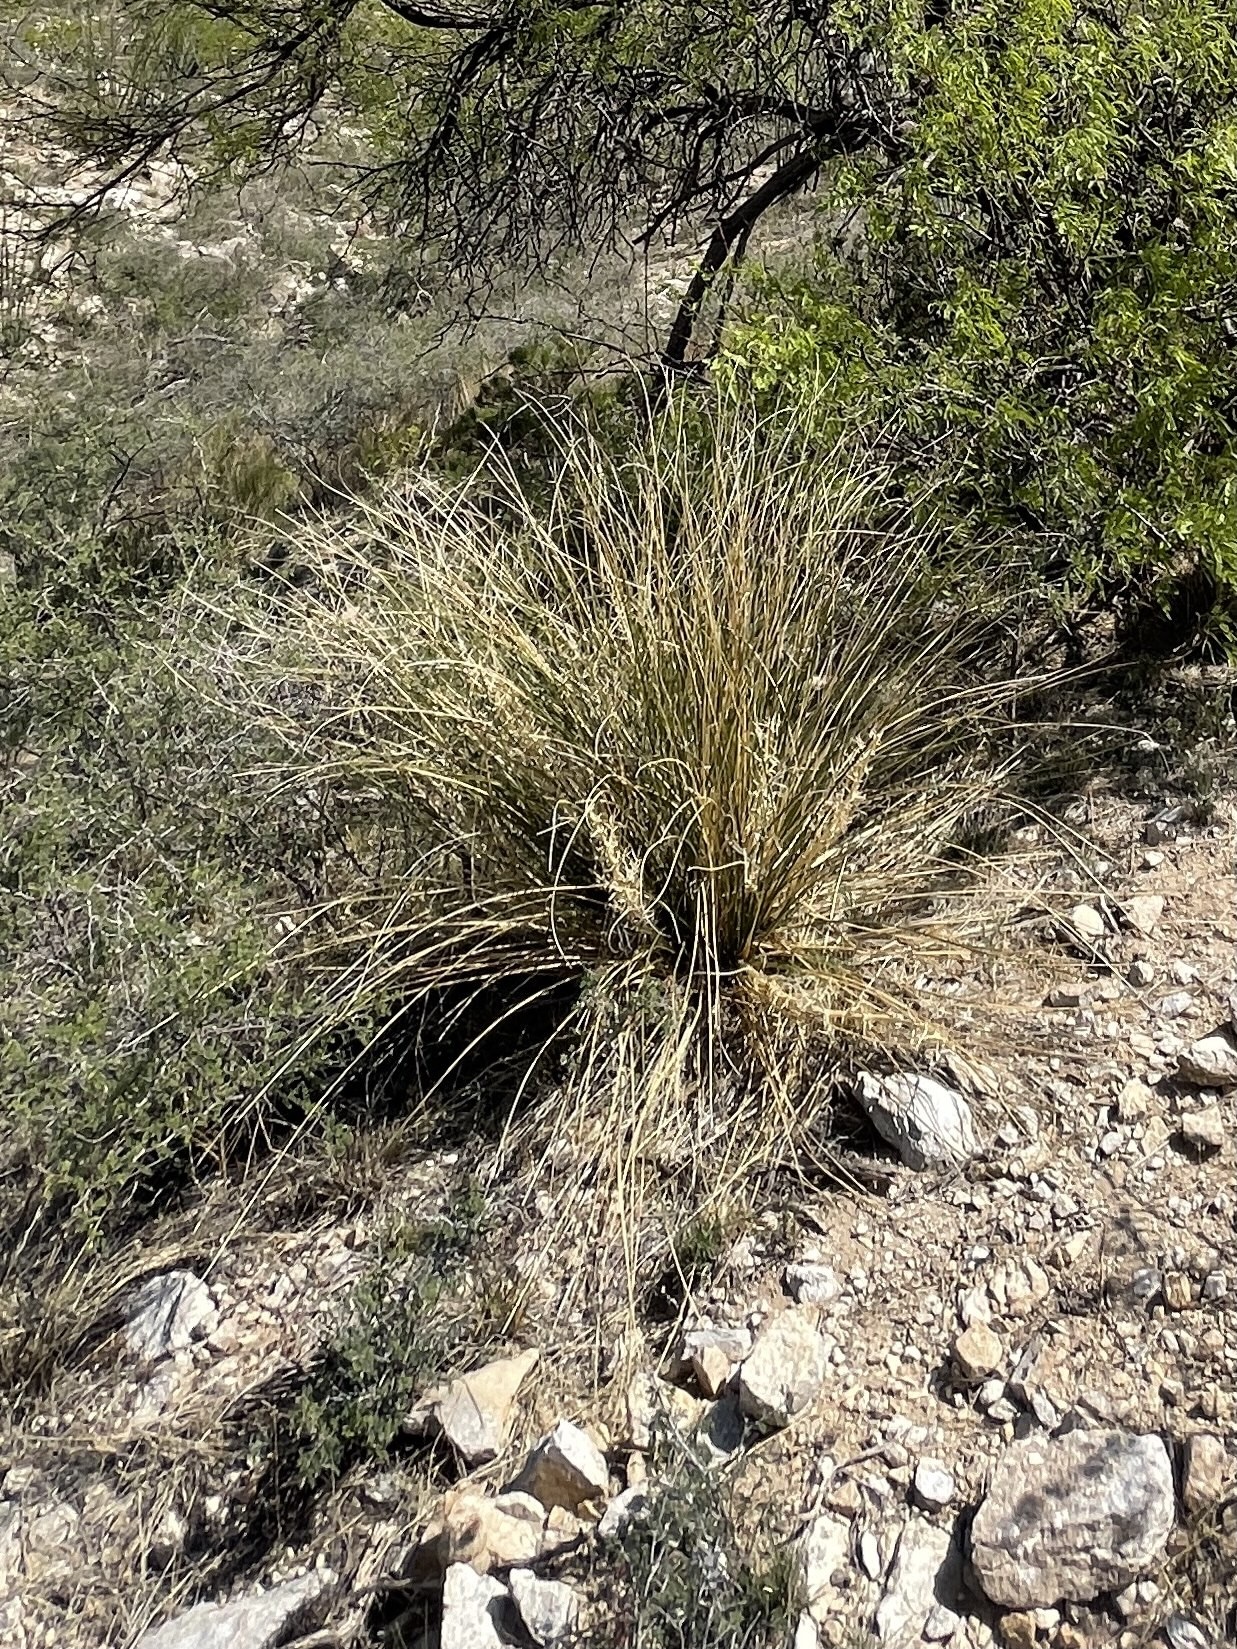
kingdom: Plantae
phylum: Tracheophyta
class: Liliopsida
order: Asparagales
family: Asparagaceae
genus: Nolina
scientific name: Nolina microcarpa
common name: Bear-grass
